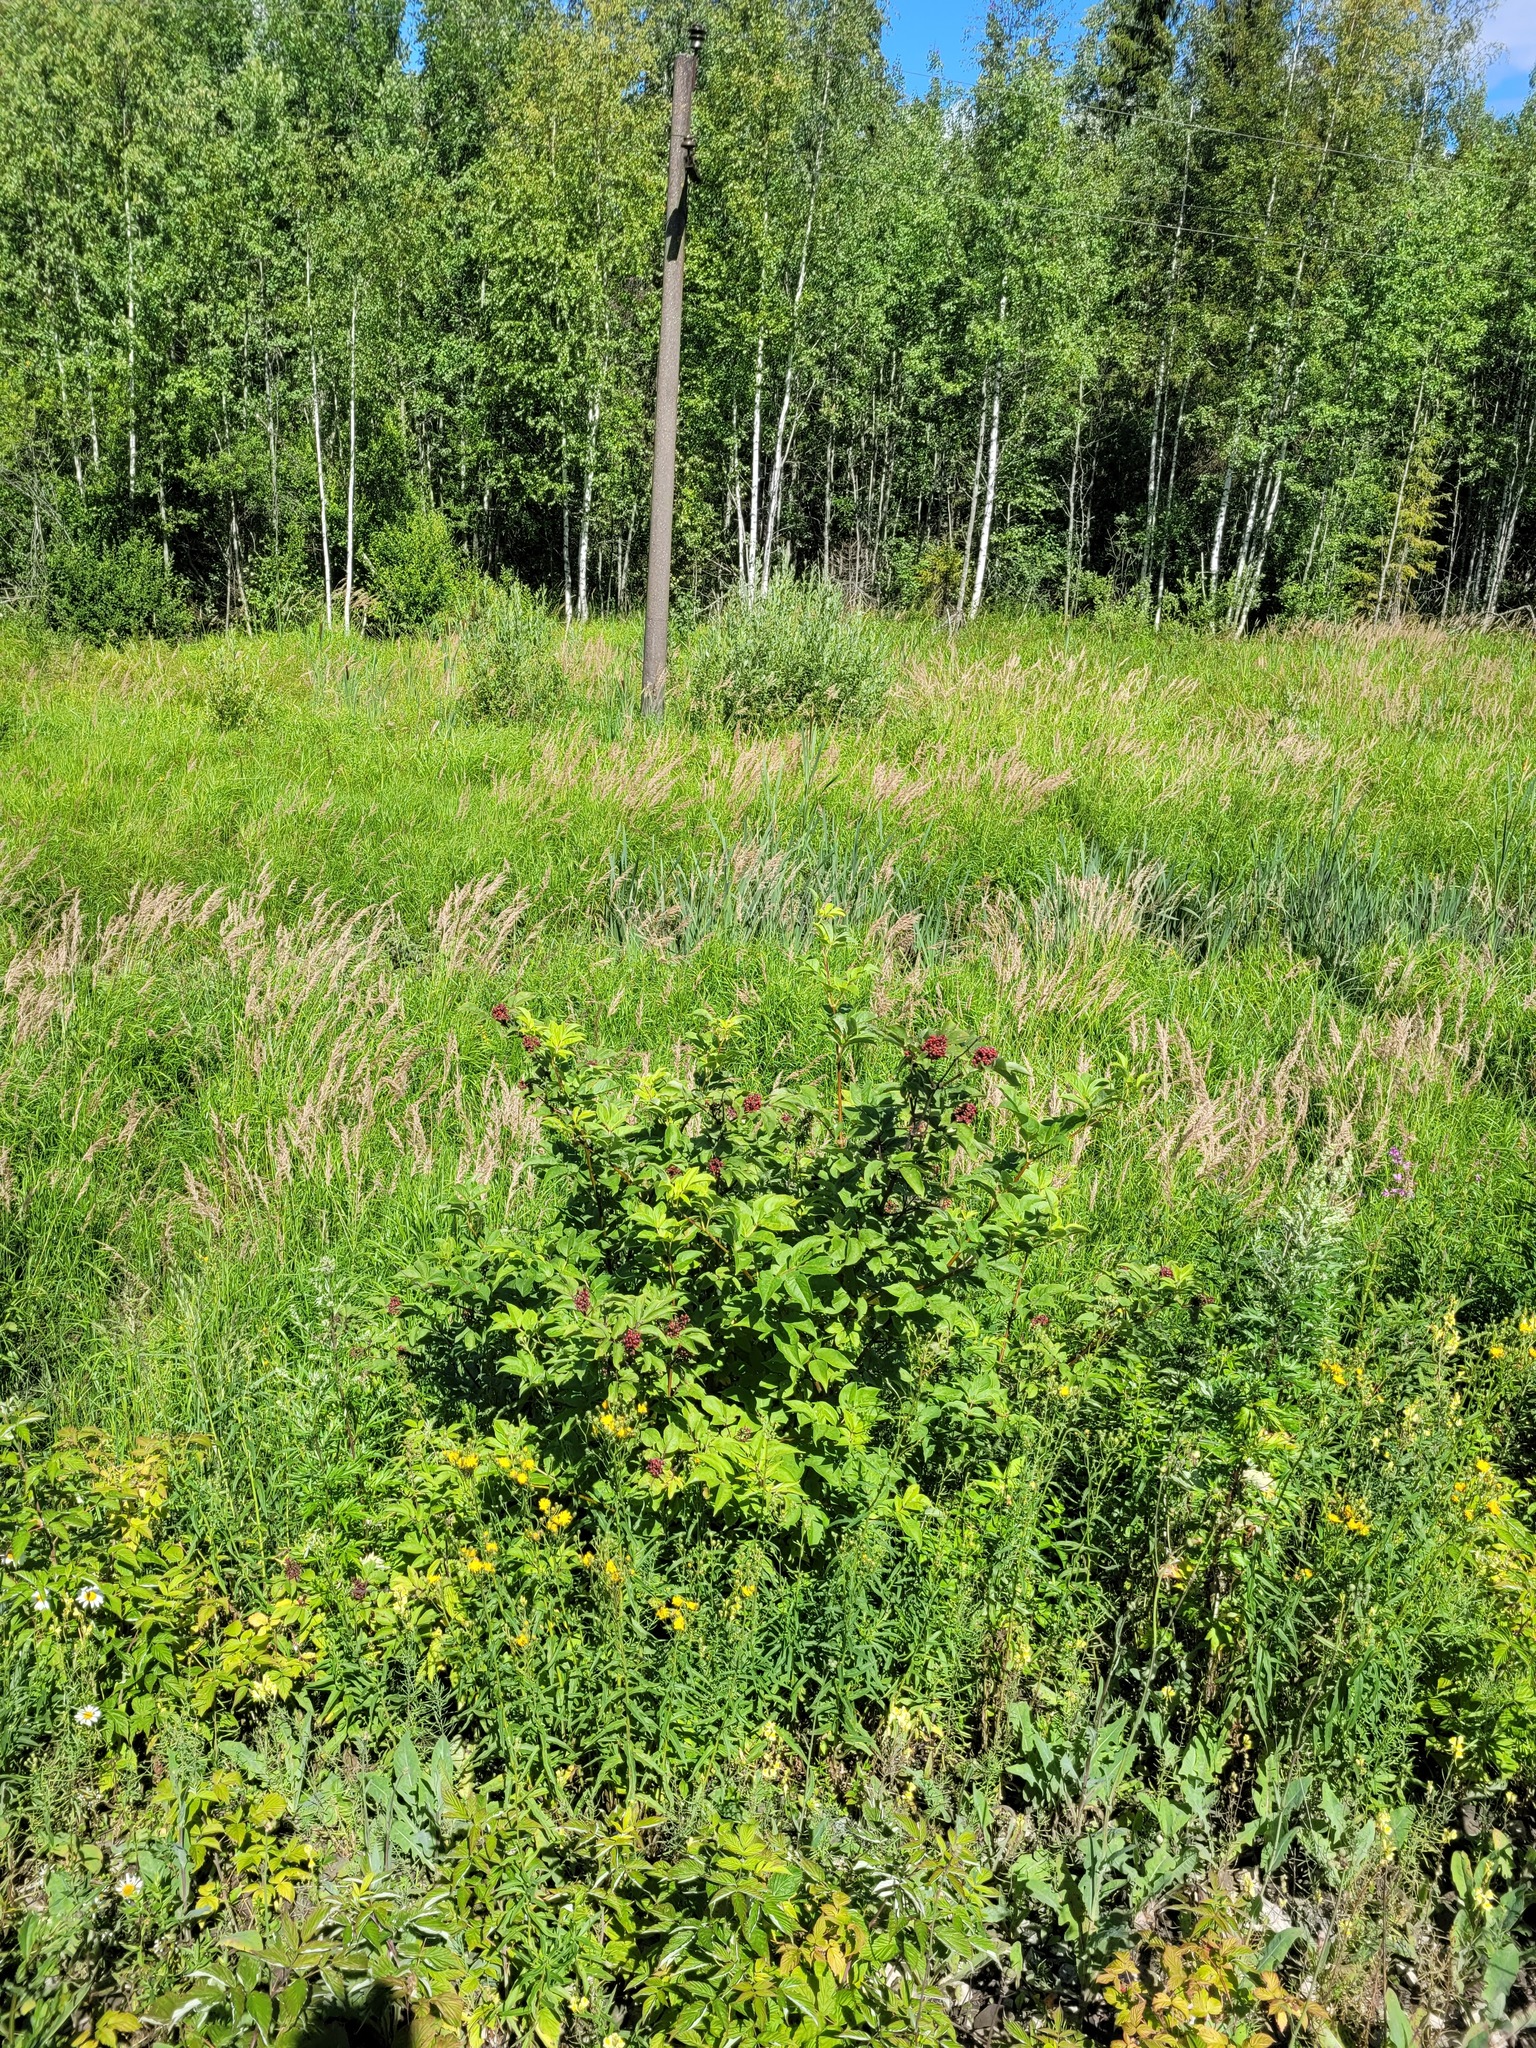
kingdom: Plantae
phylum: Tracheophyta
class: Magnoliopsida
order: Dipsacales
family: Viburnaceae
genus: Sambucus
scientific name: Sambucus racemosa
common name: Red-berried elder
